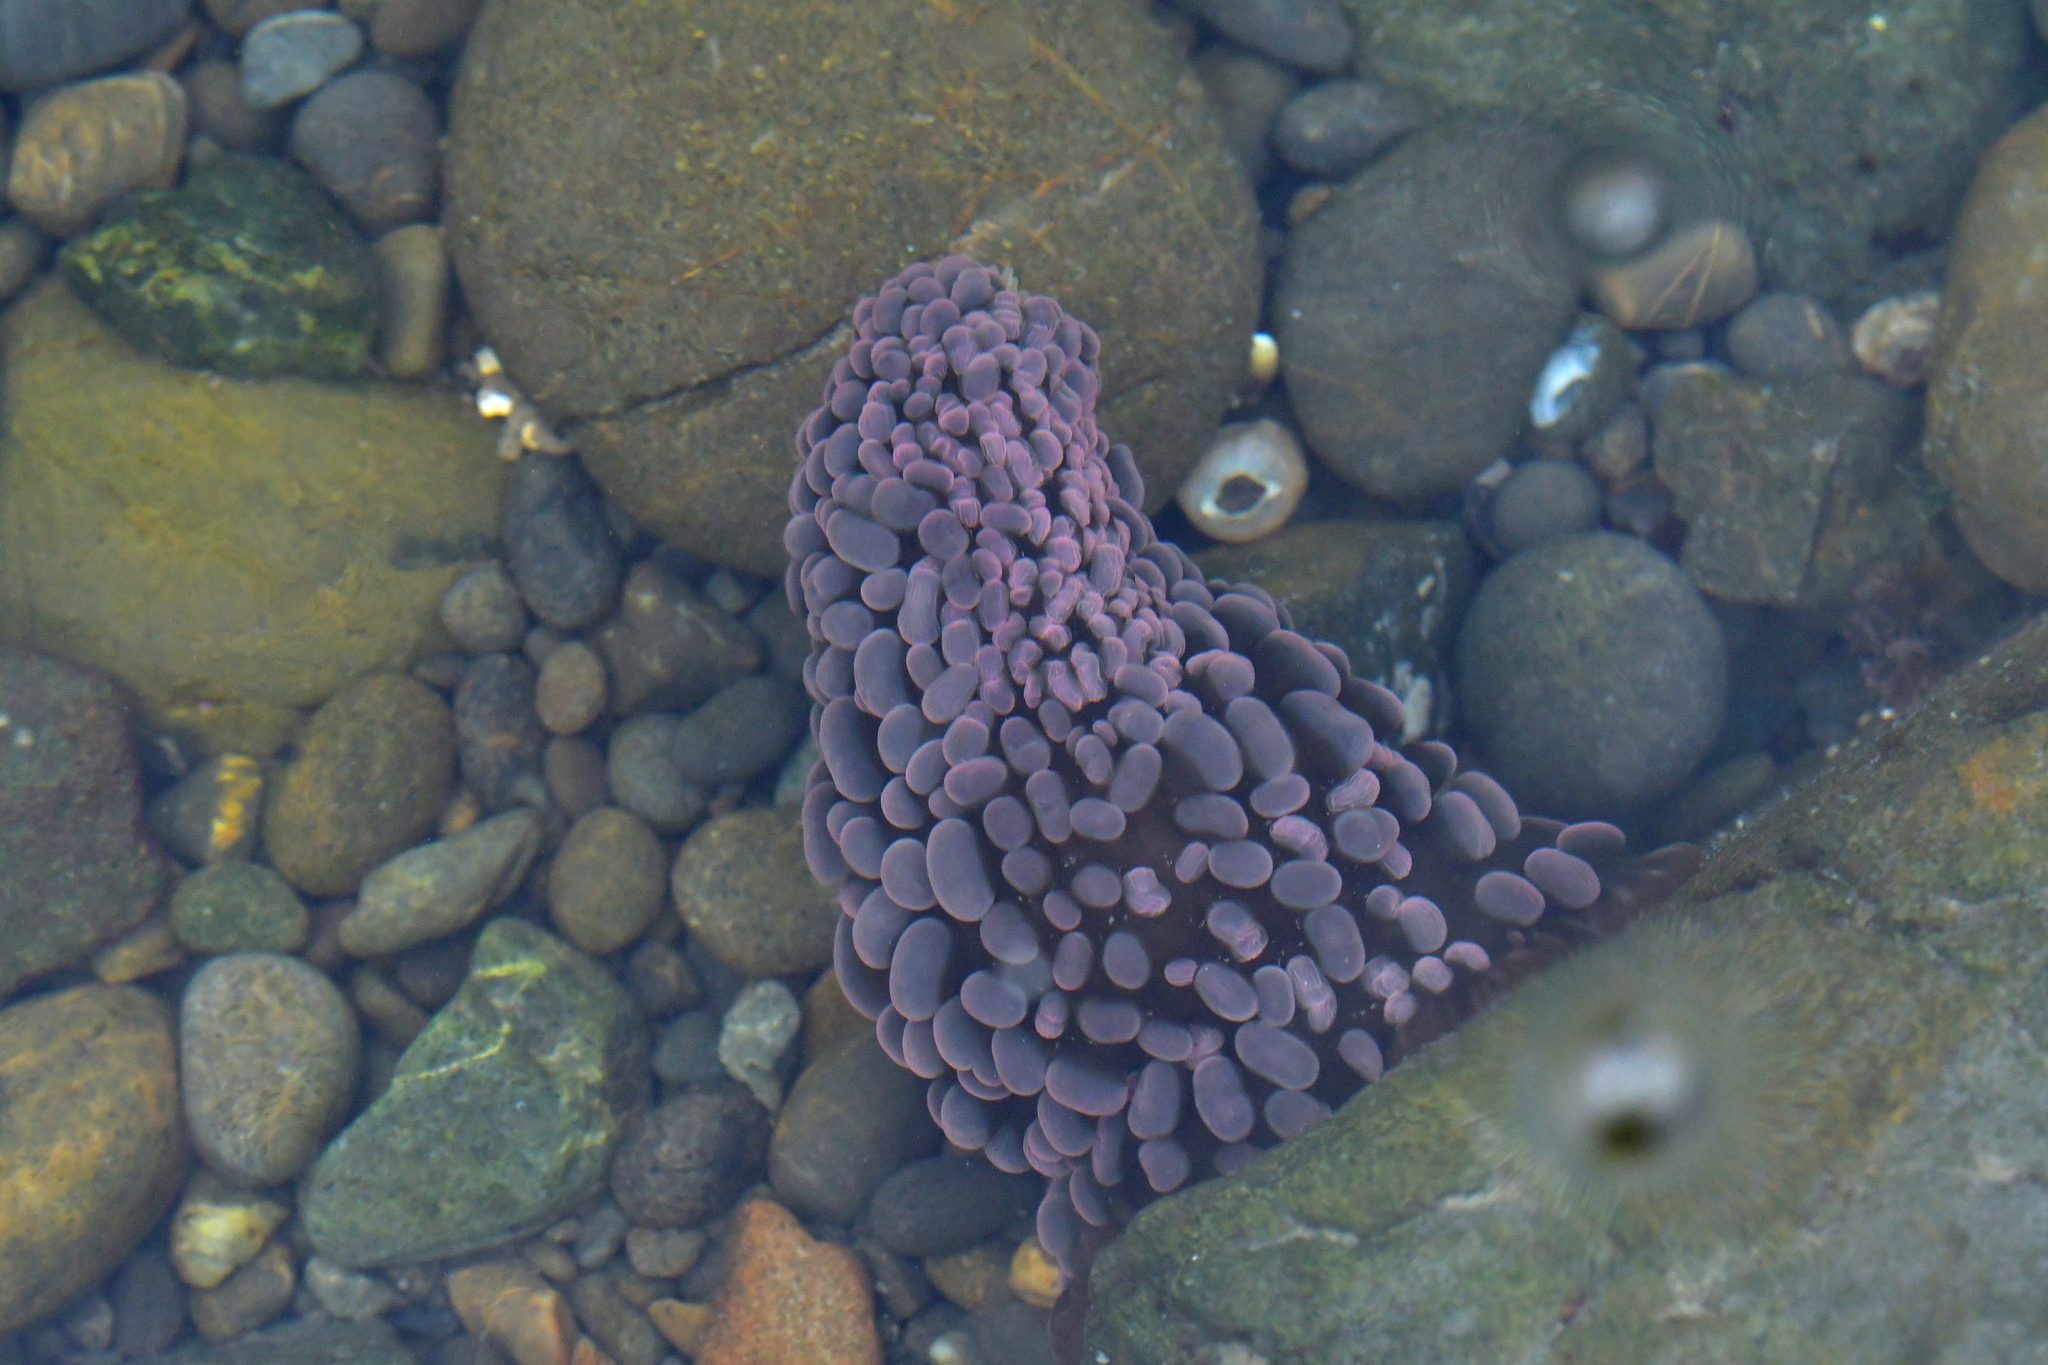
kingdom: Animalia
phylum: Cnidaria
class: Anthozoa
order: Actiniaria
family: Actiniidae
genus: Phlyctenactis
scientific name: Phlyctenactis tuberculosa
